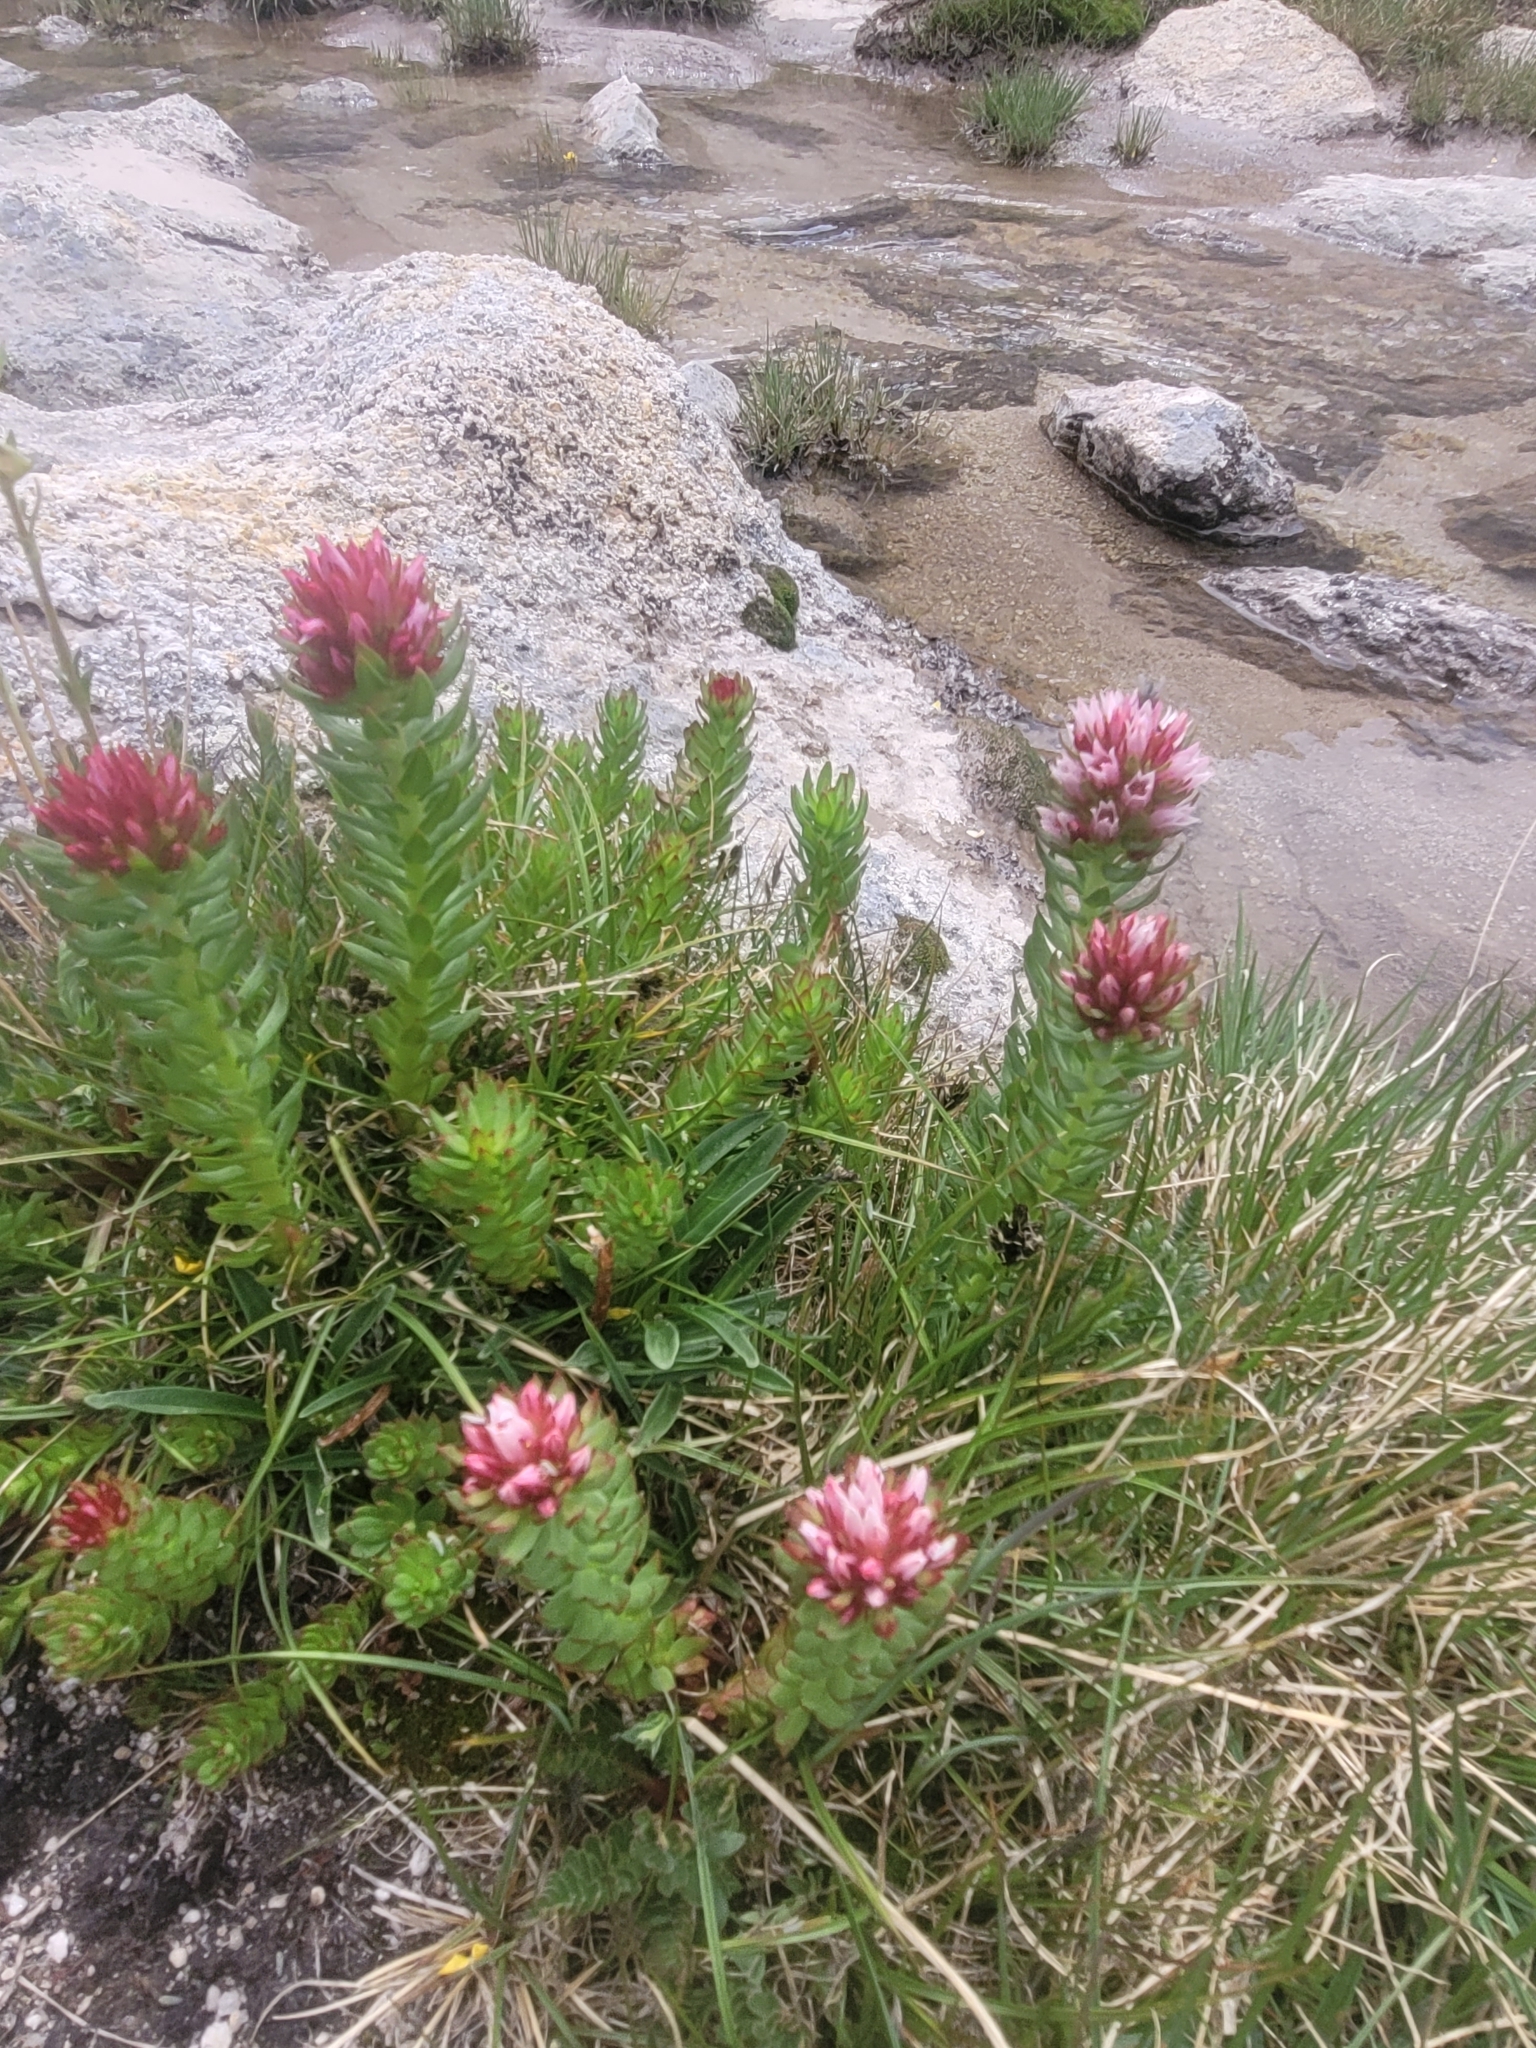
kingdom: Plantae
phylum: Tracheophyta
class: Magnoliopsida
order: Saxifragales
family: Crassulaceae
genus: Rhodiola
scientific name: Rhodiola rhodantha
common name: Red orpine
